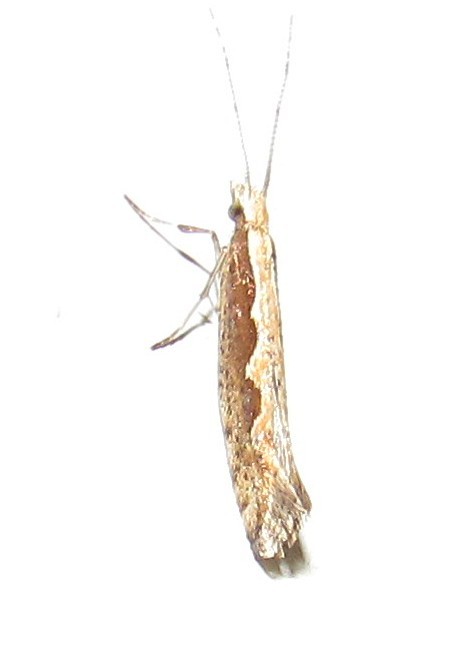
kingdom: Animalia
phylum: Arthropoda
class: Insecta
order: Lepidoptera
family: Plutellidae
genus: Plutella
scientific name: Plutella xylostella
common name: Diamond-back moth
